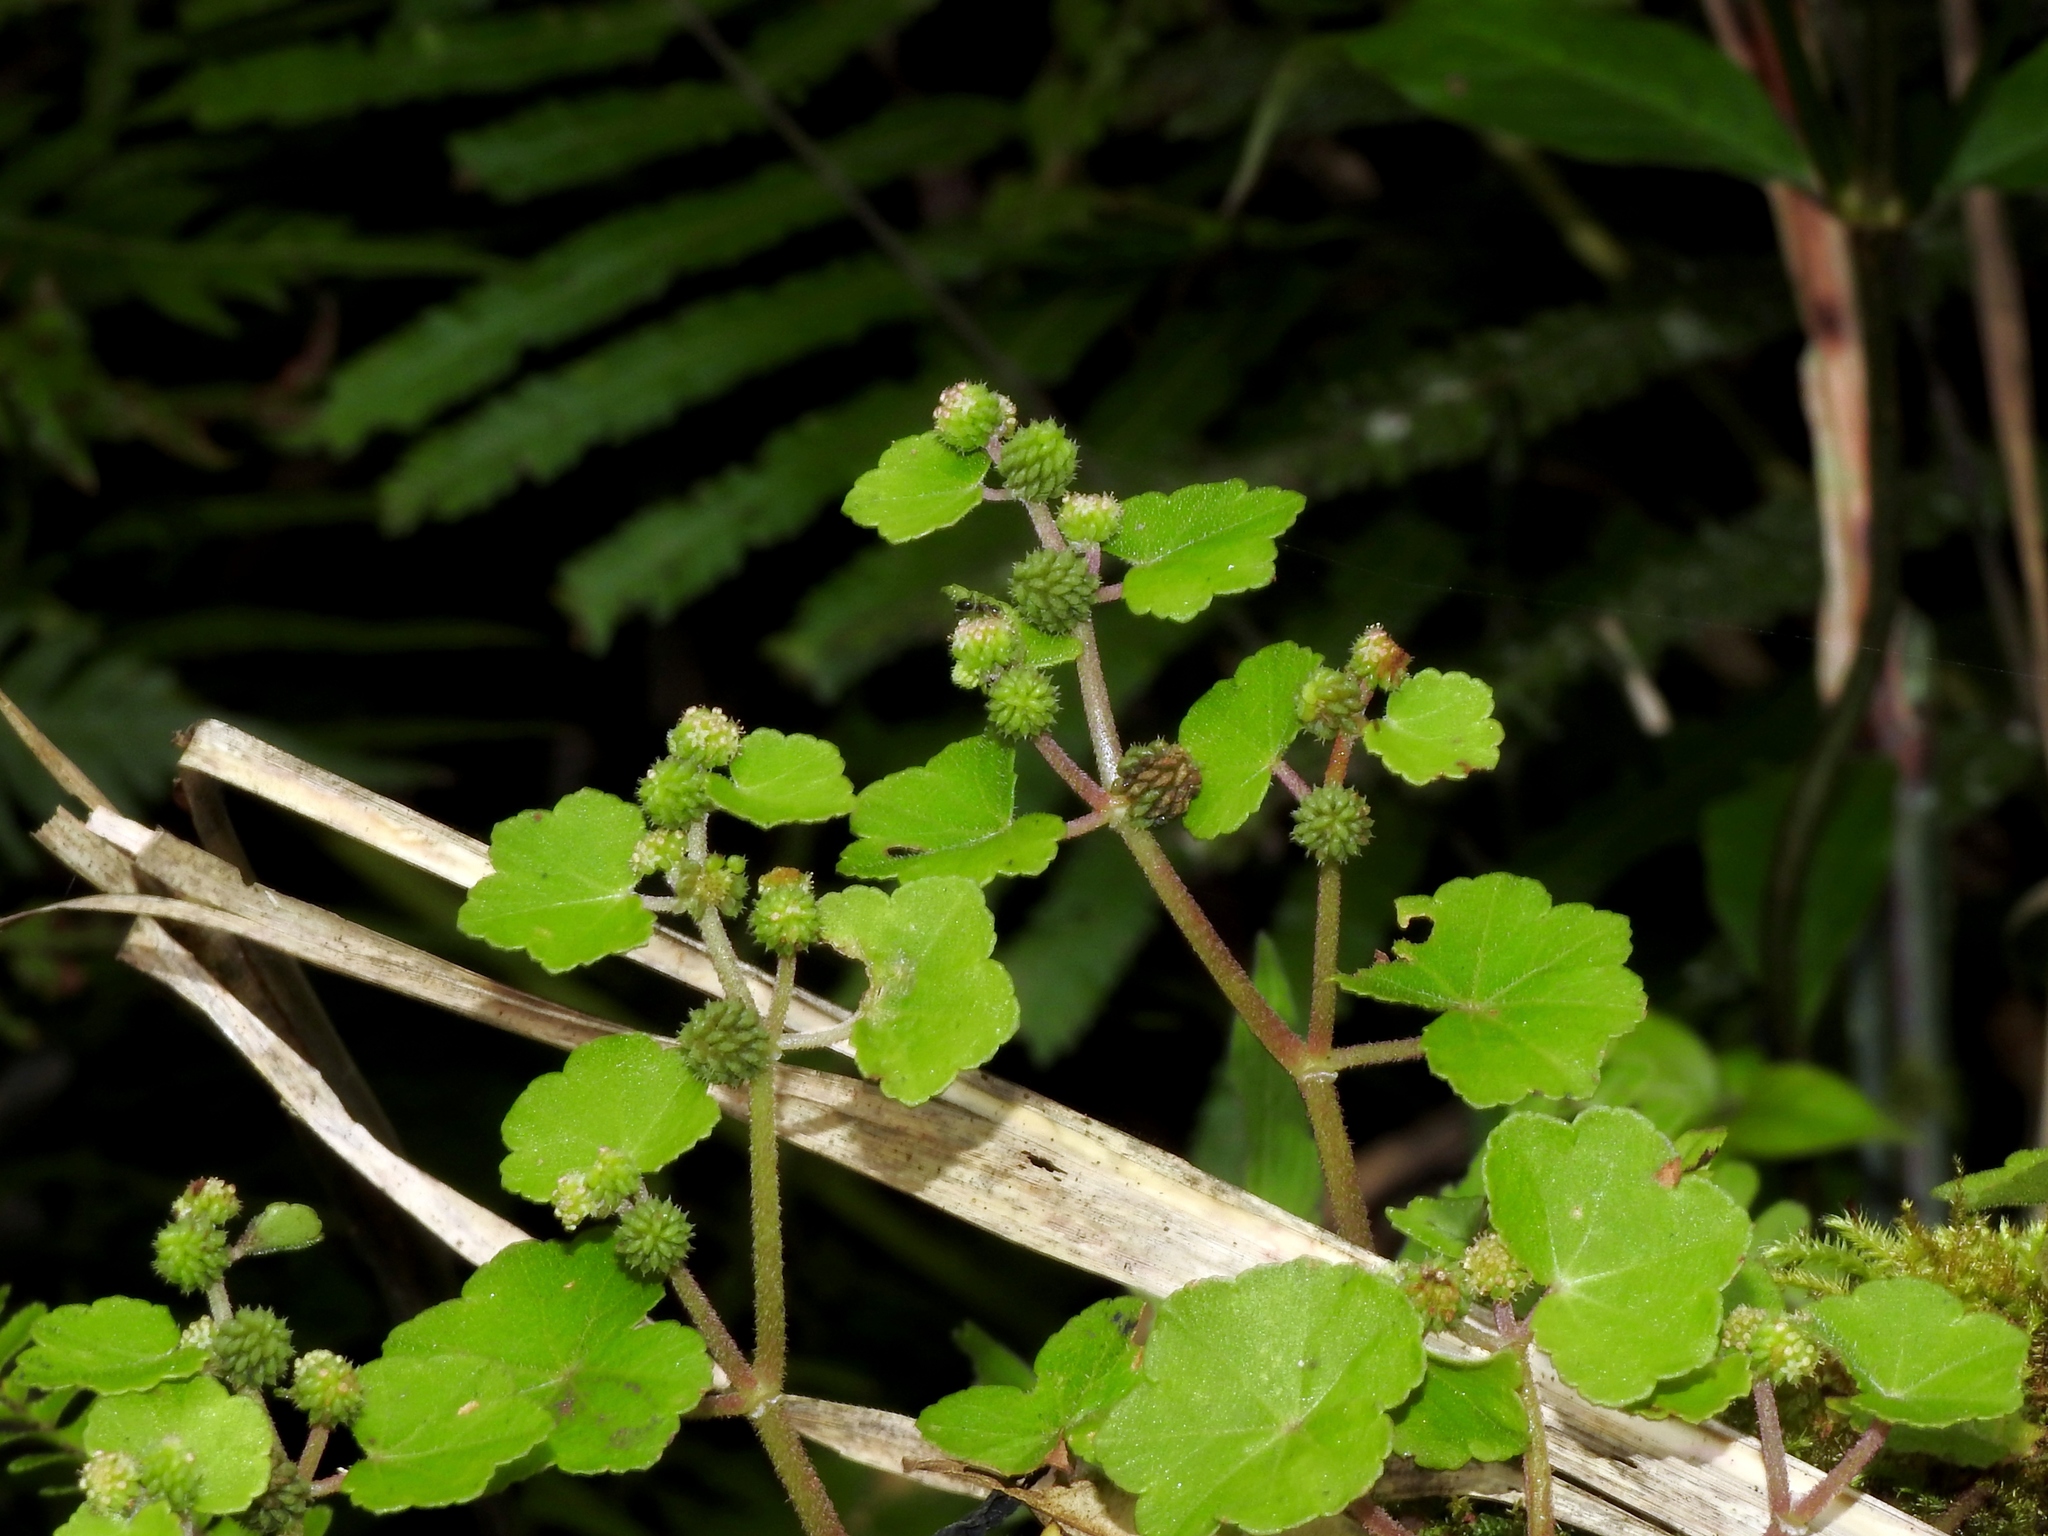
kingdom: Plantae
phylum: Tracheophyta
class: Magnoliopsida
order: Apiales
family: Araliaceae
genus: Hydrocotyle
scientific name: Hydrocotyle setulosa
